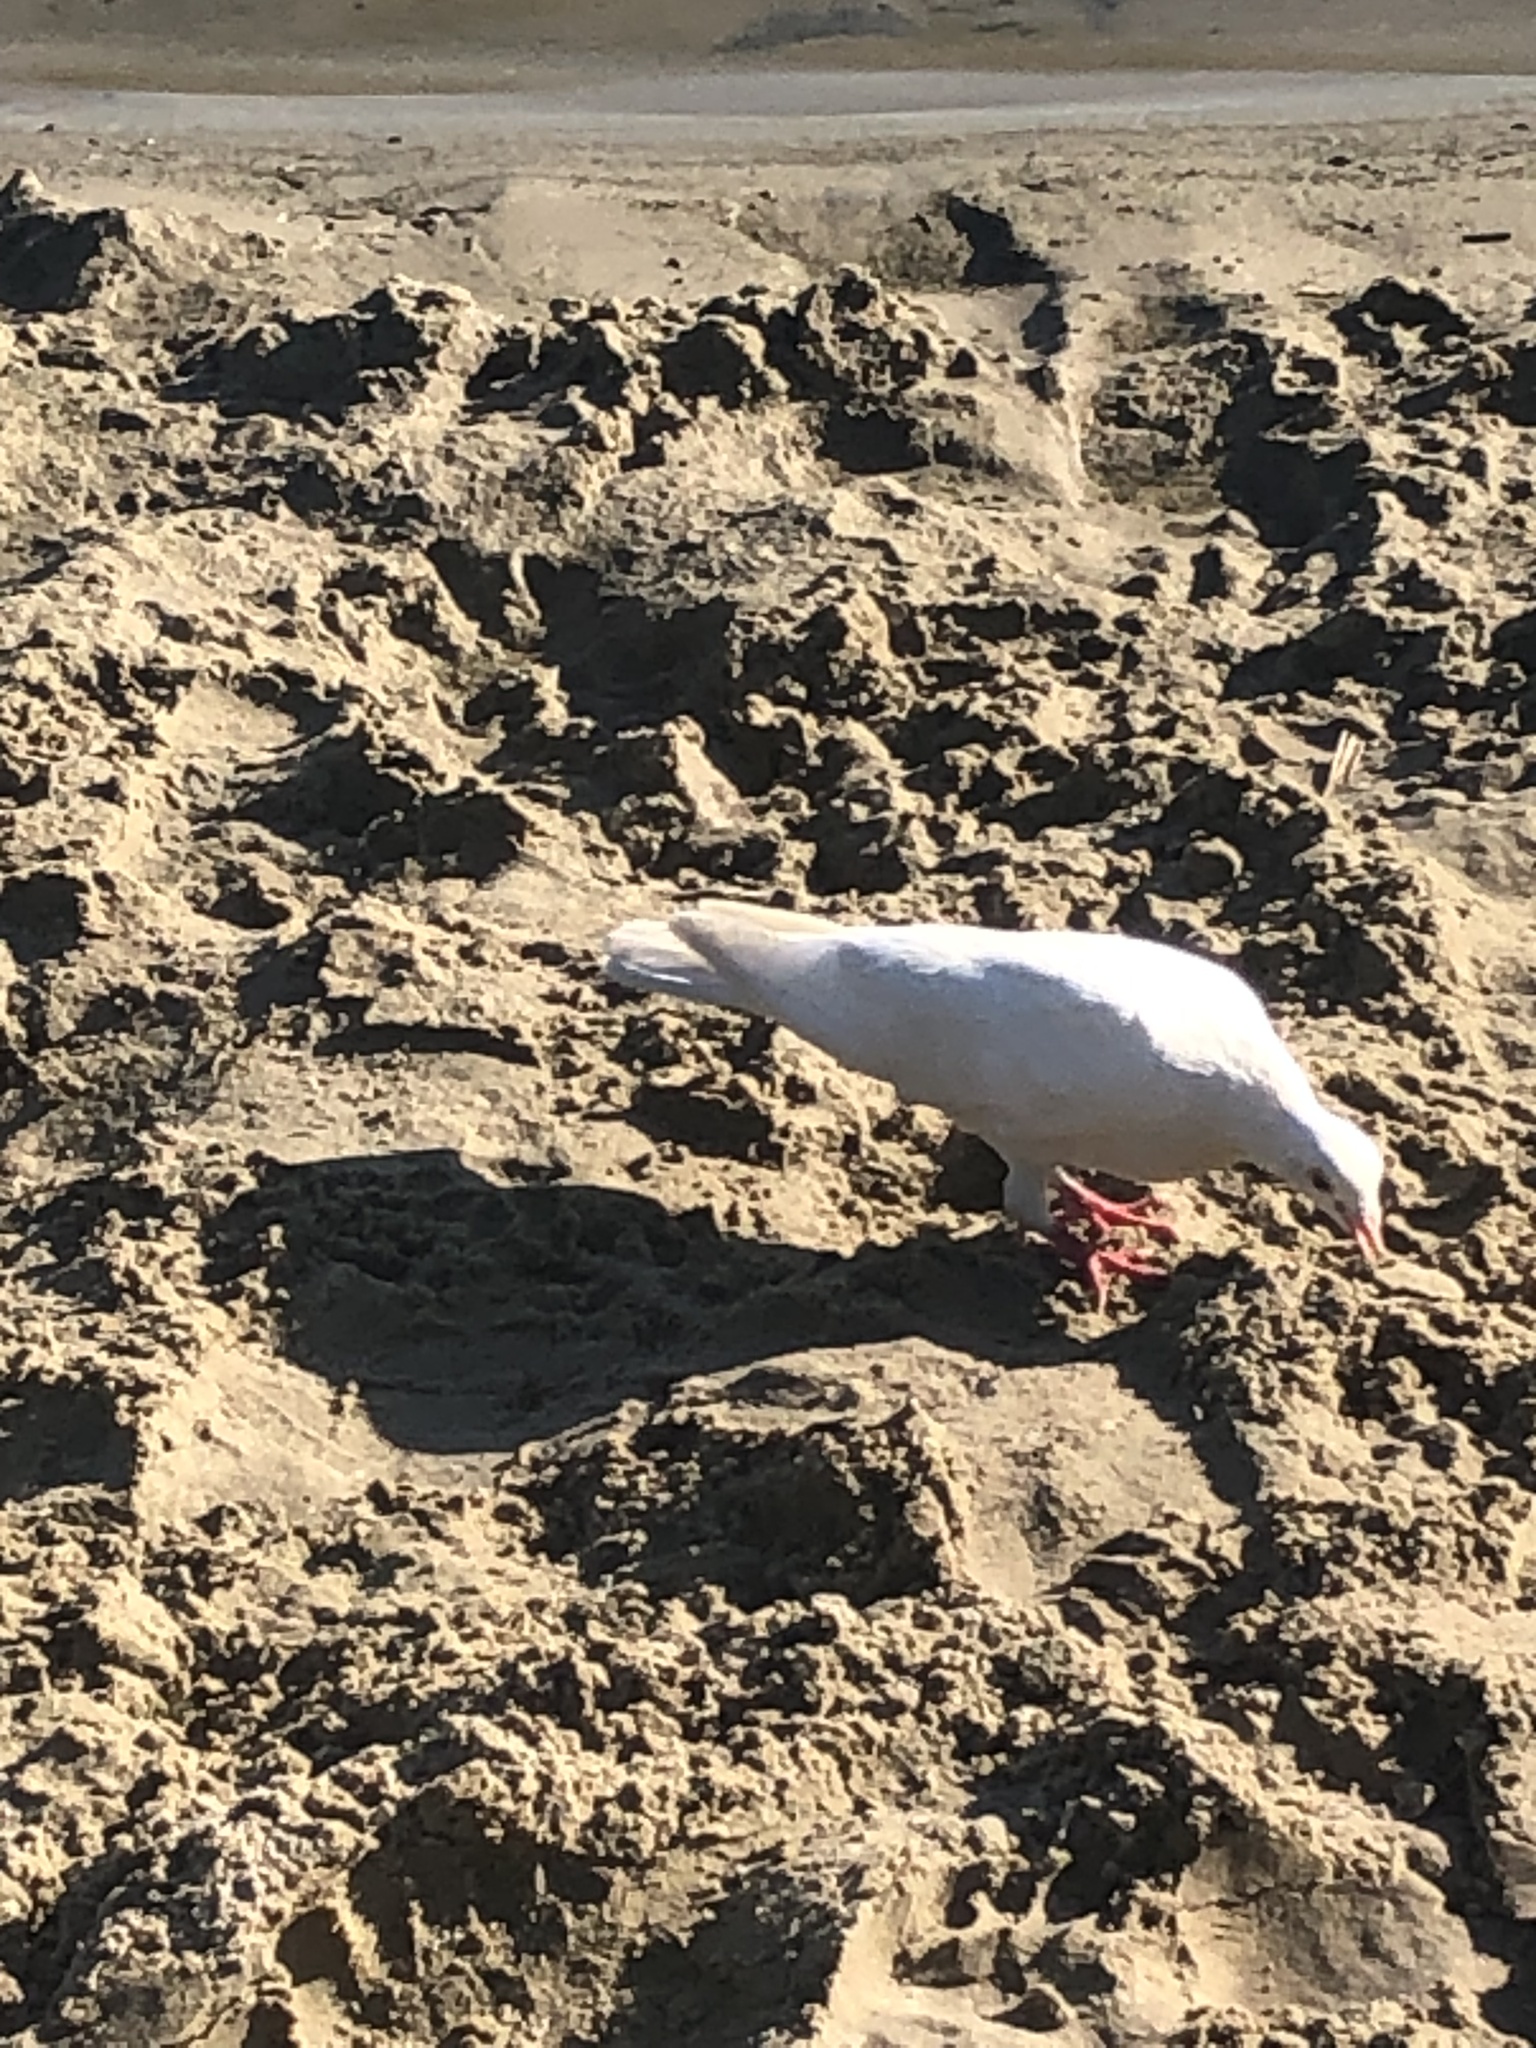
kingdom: Animalia
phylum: Chordata
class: Aves
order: Columbiformes
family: Columbidae
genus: Columba
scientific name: Columba livia
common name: Rock pigeon
